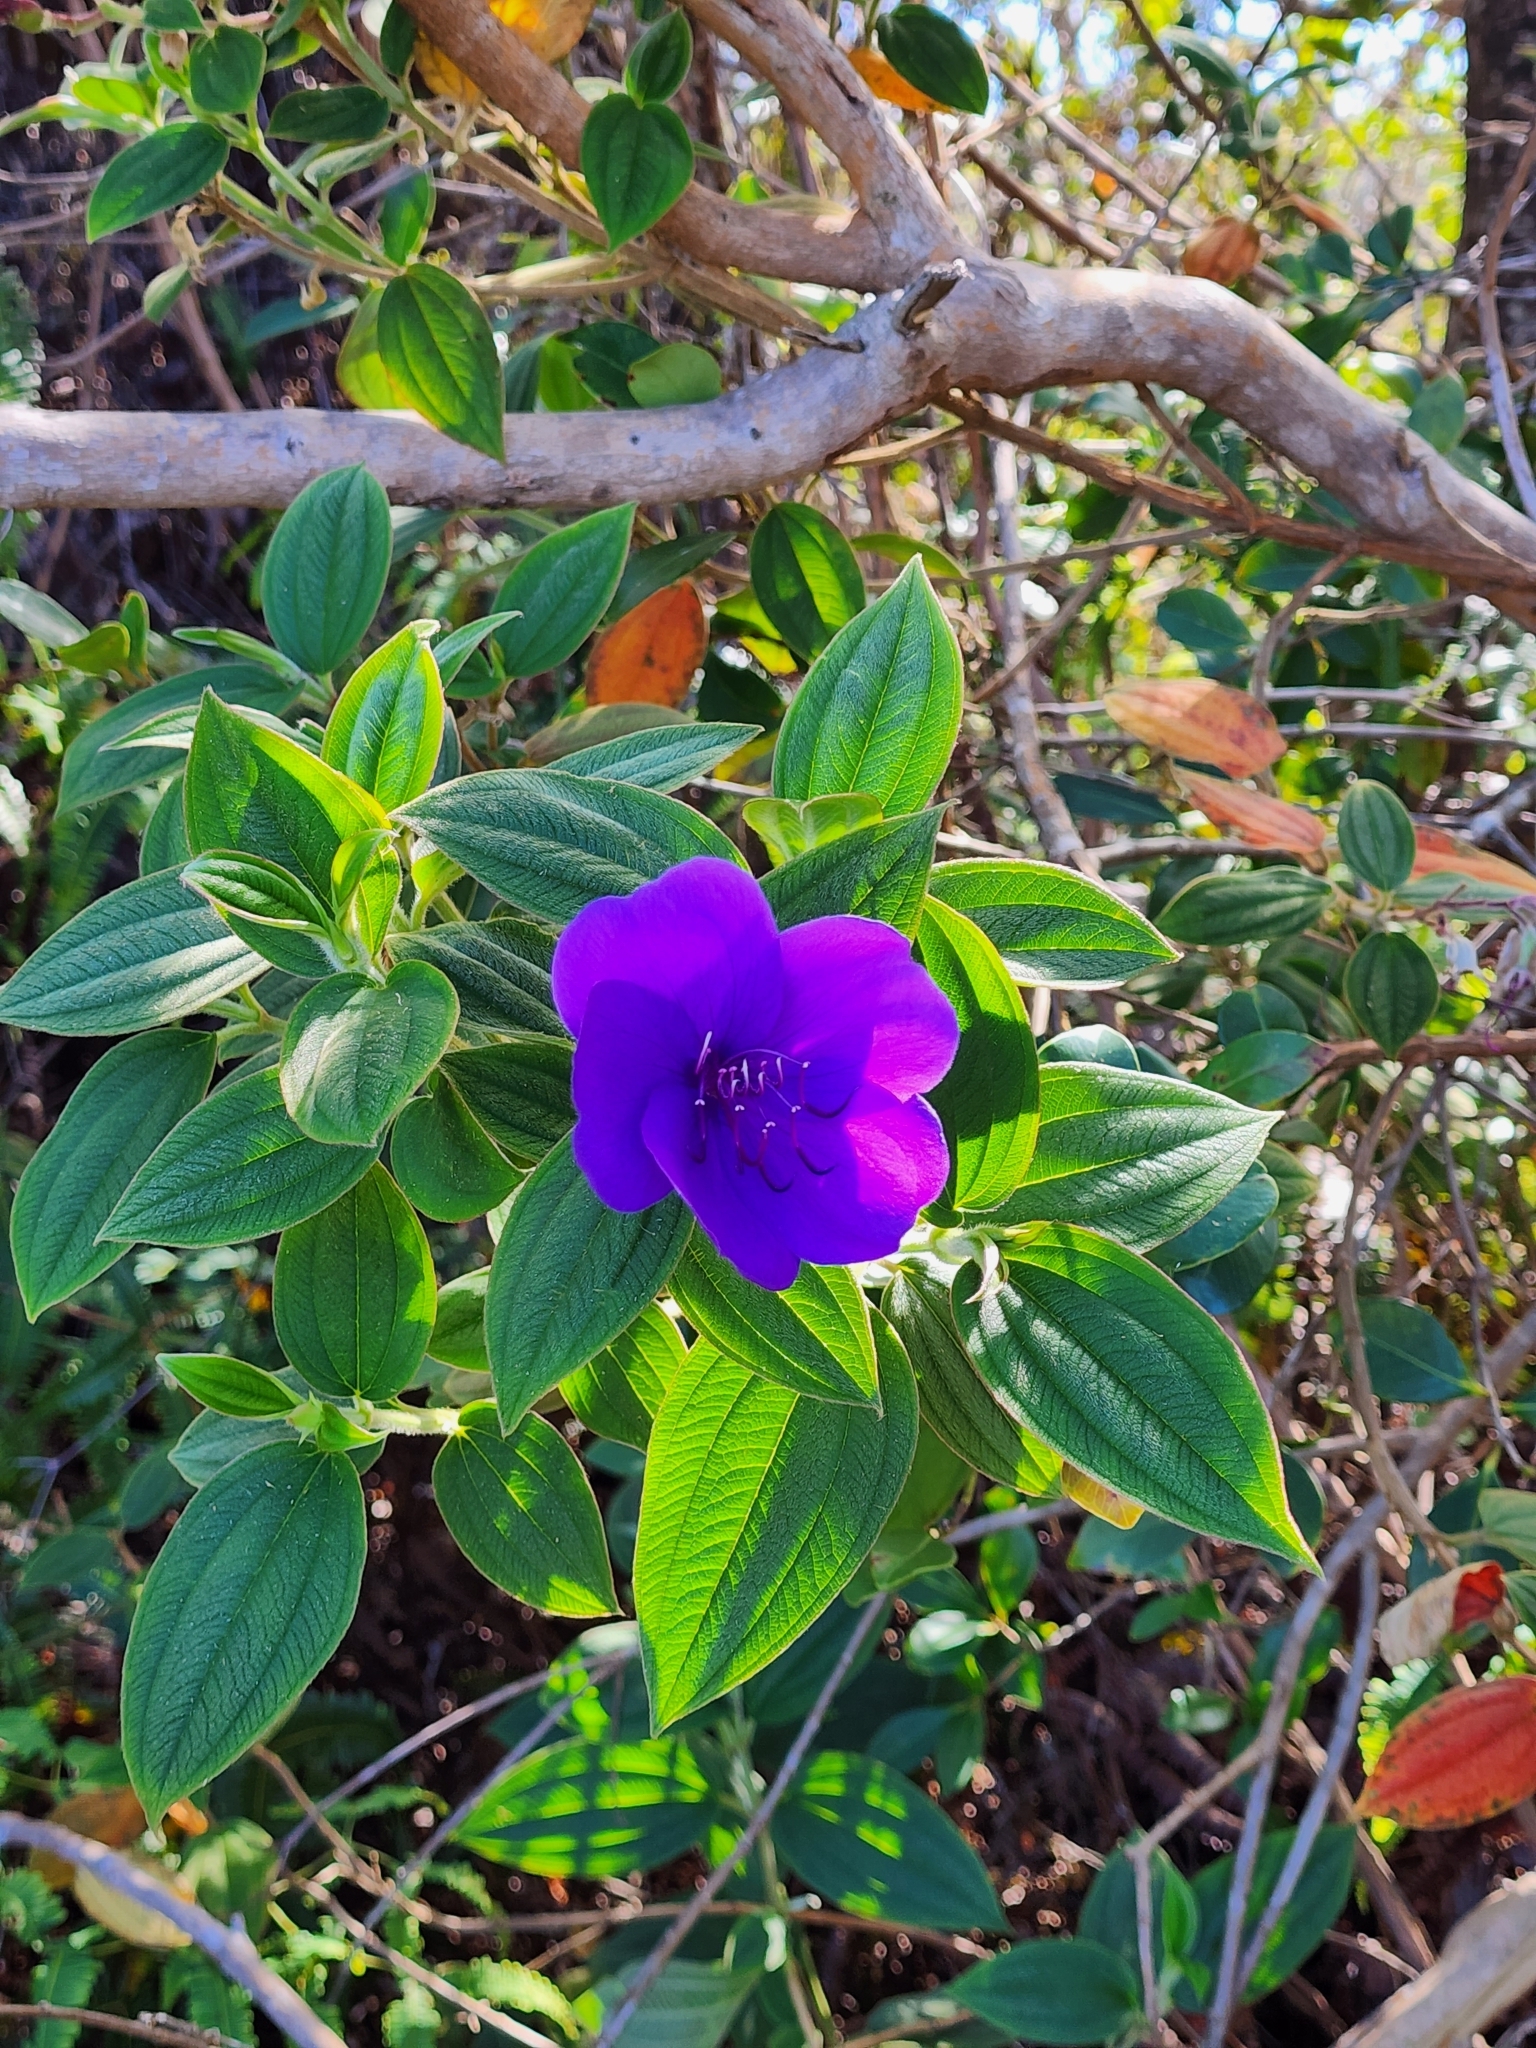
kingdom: Plantae
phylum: Tracheophyta
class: Magnoliopsida
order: Myrtales
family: Melastomataceae
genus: Pleroma
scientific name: Pleroma urvilleanum
